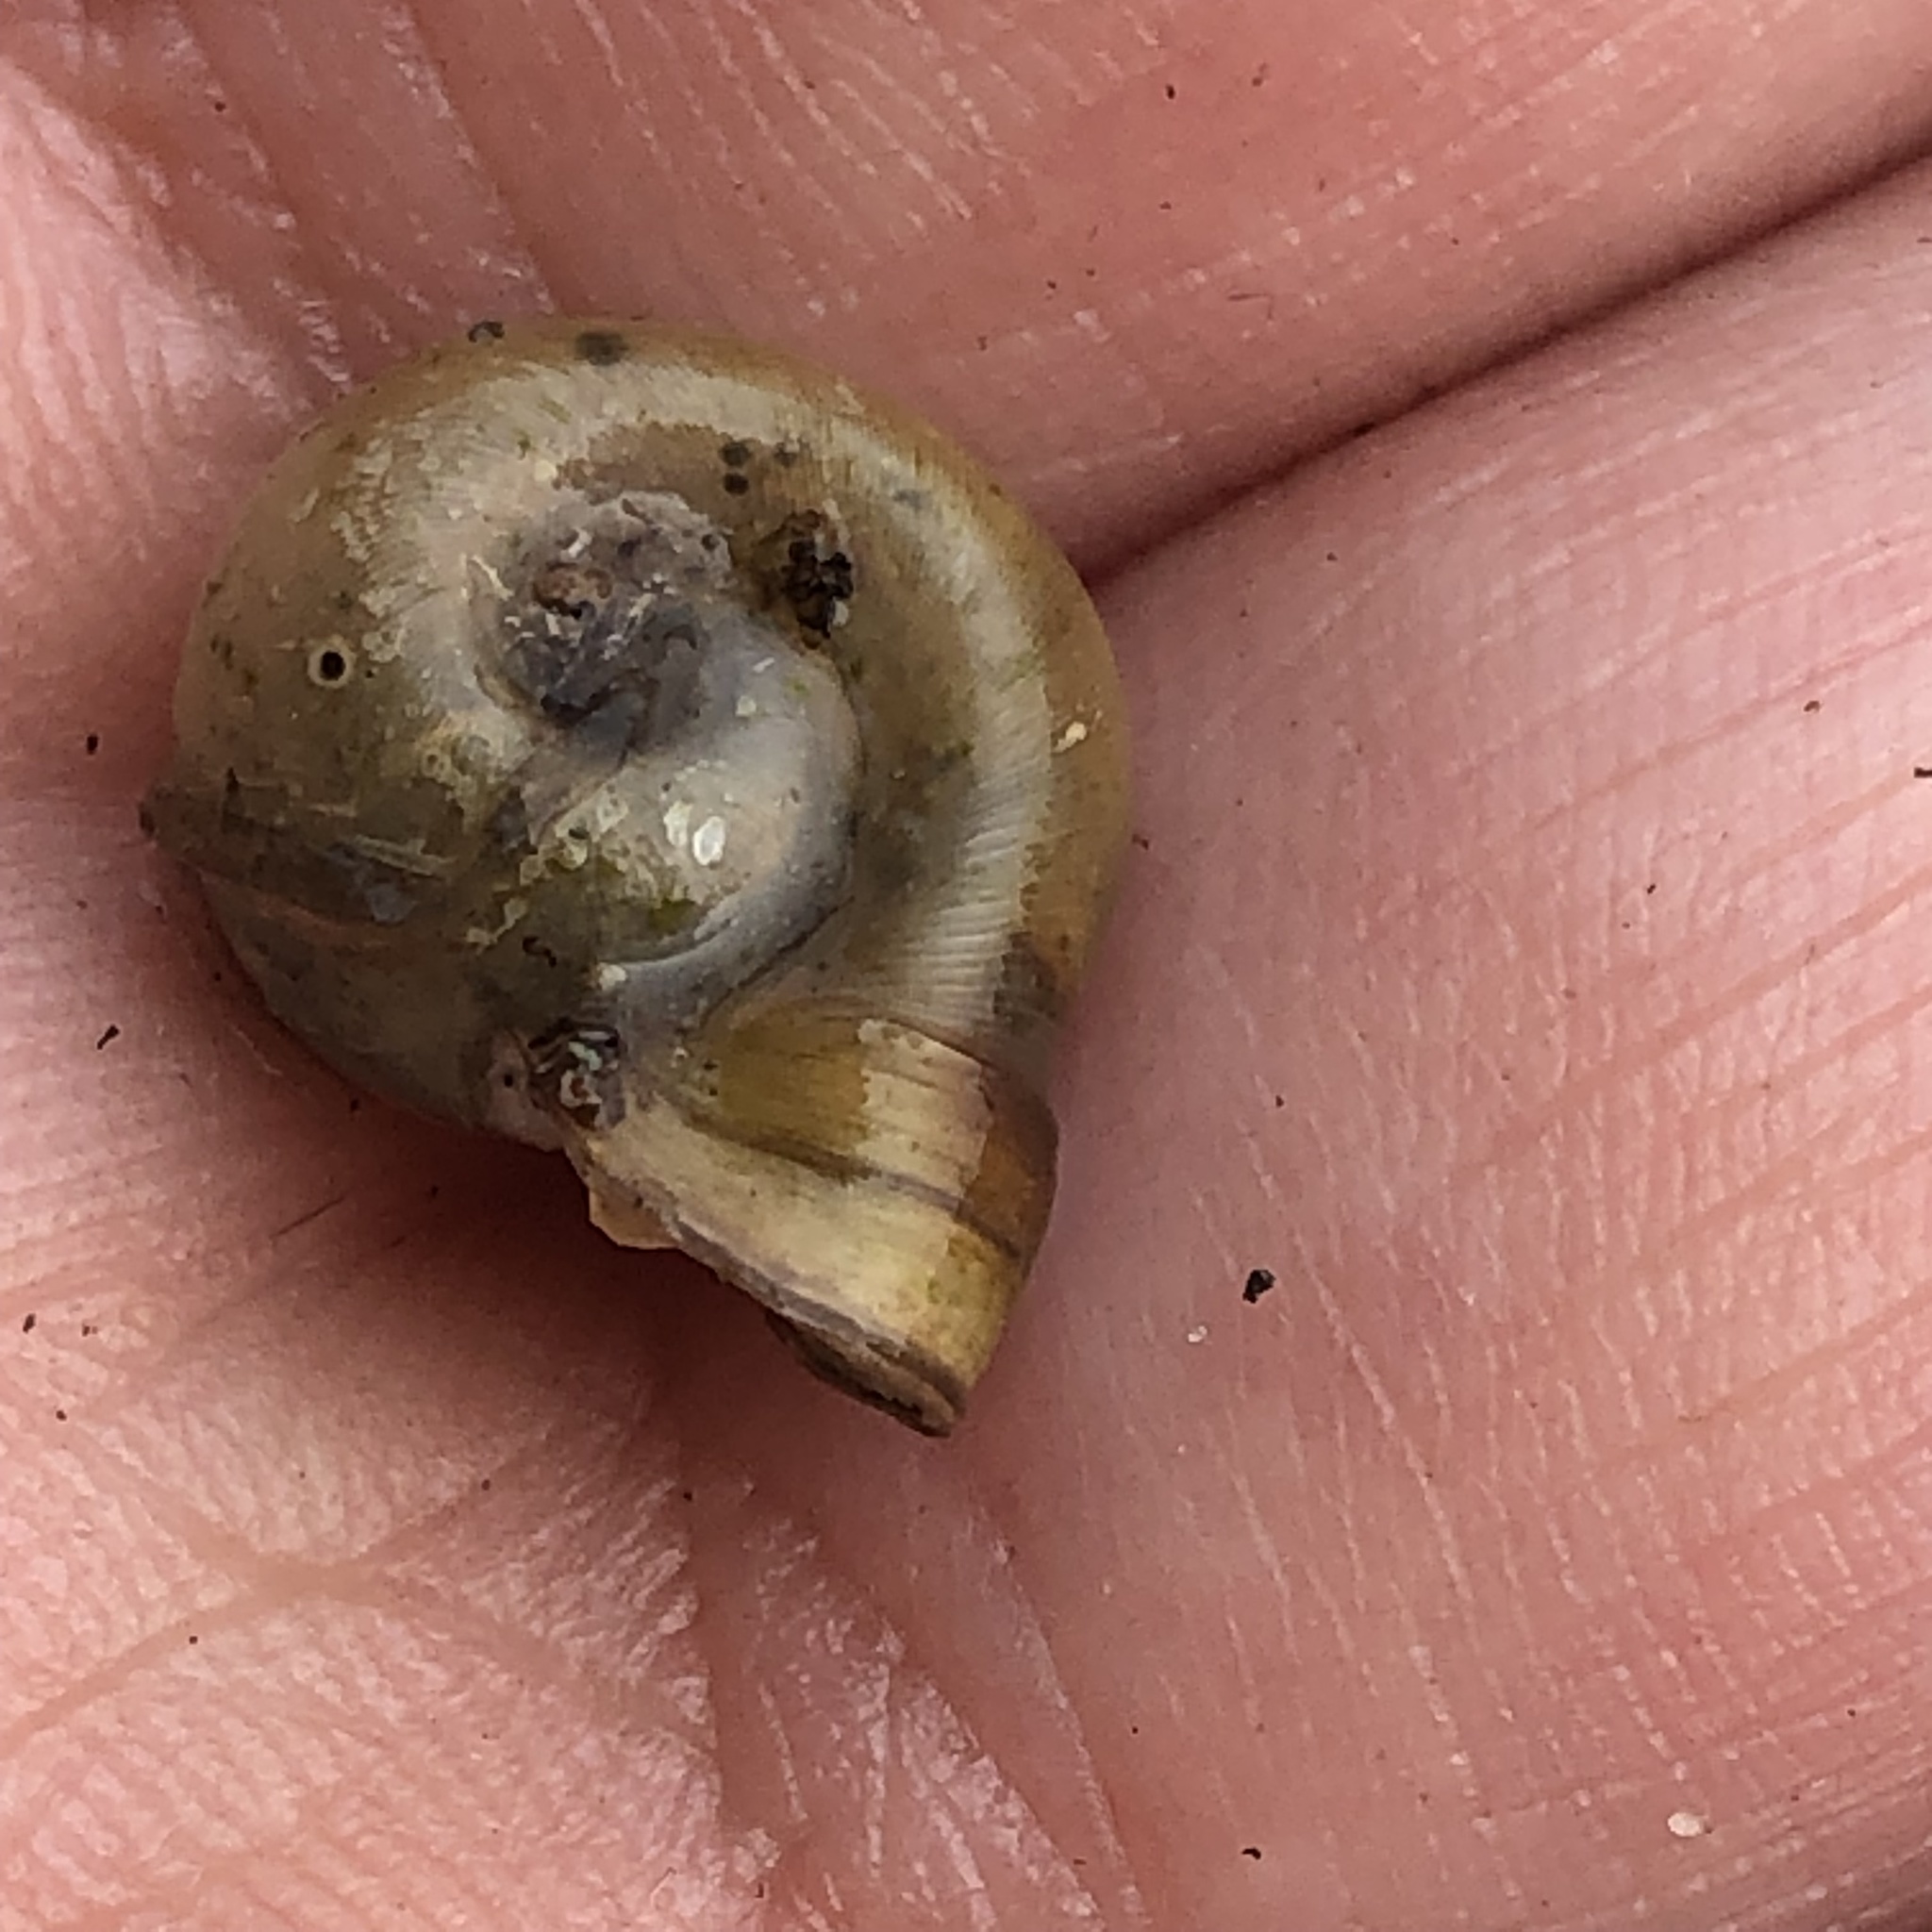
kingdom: Animalia
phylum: Mollusca
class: Gastropoda
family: Planorbidae
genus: Planorbella
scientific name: Planorbella campanulata
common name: Bellmouth ramshorn
